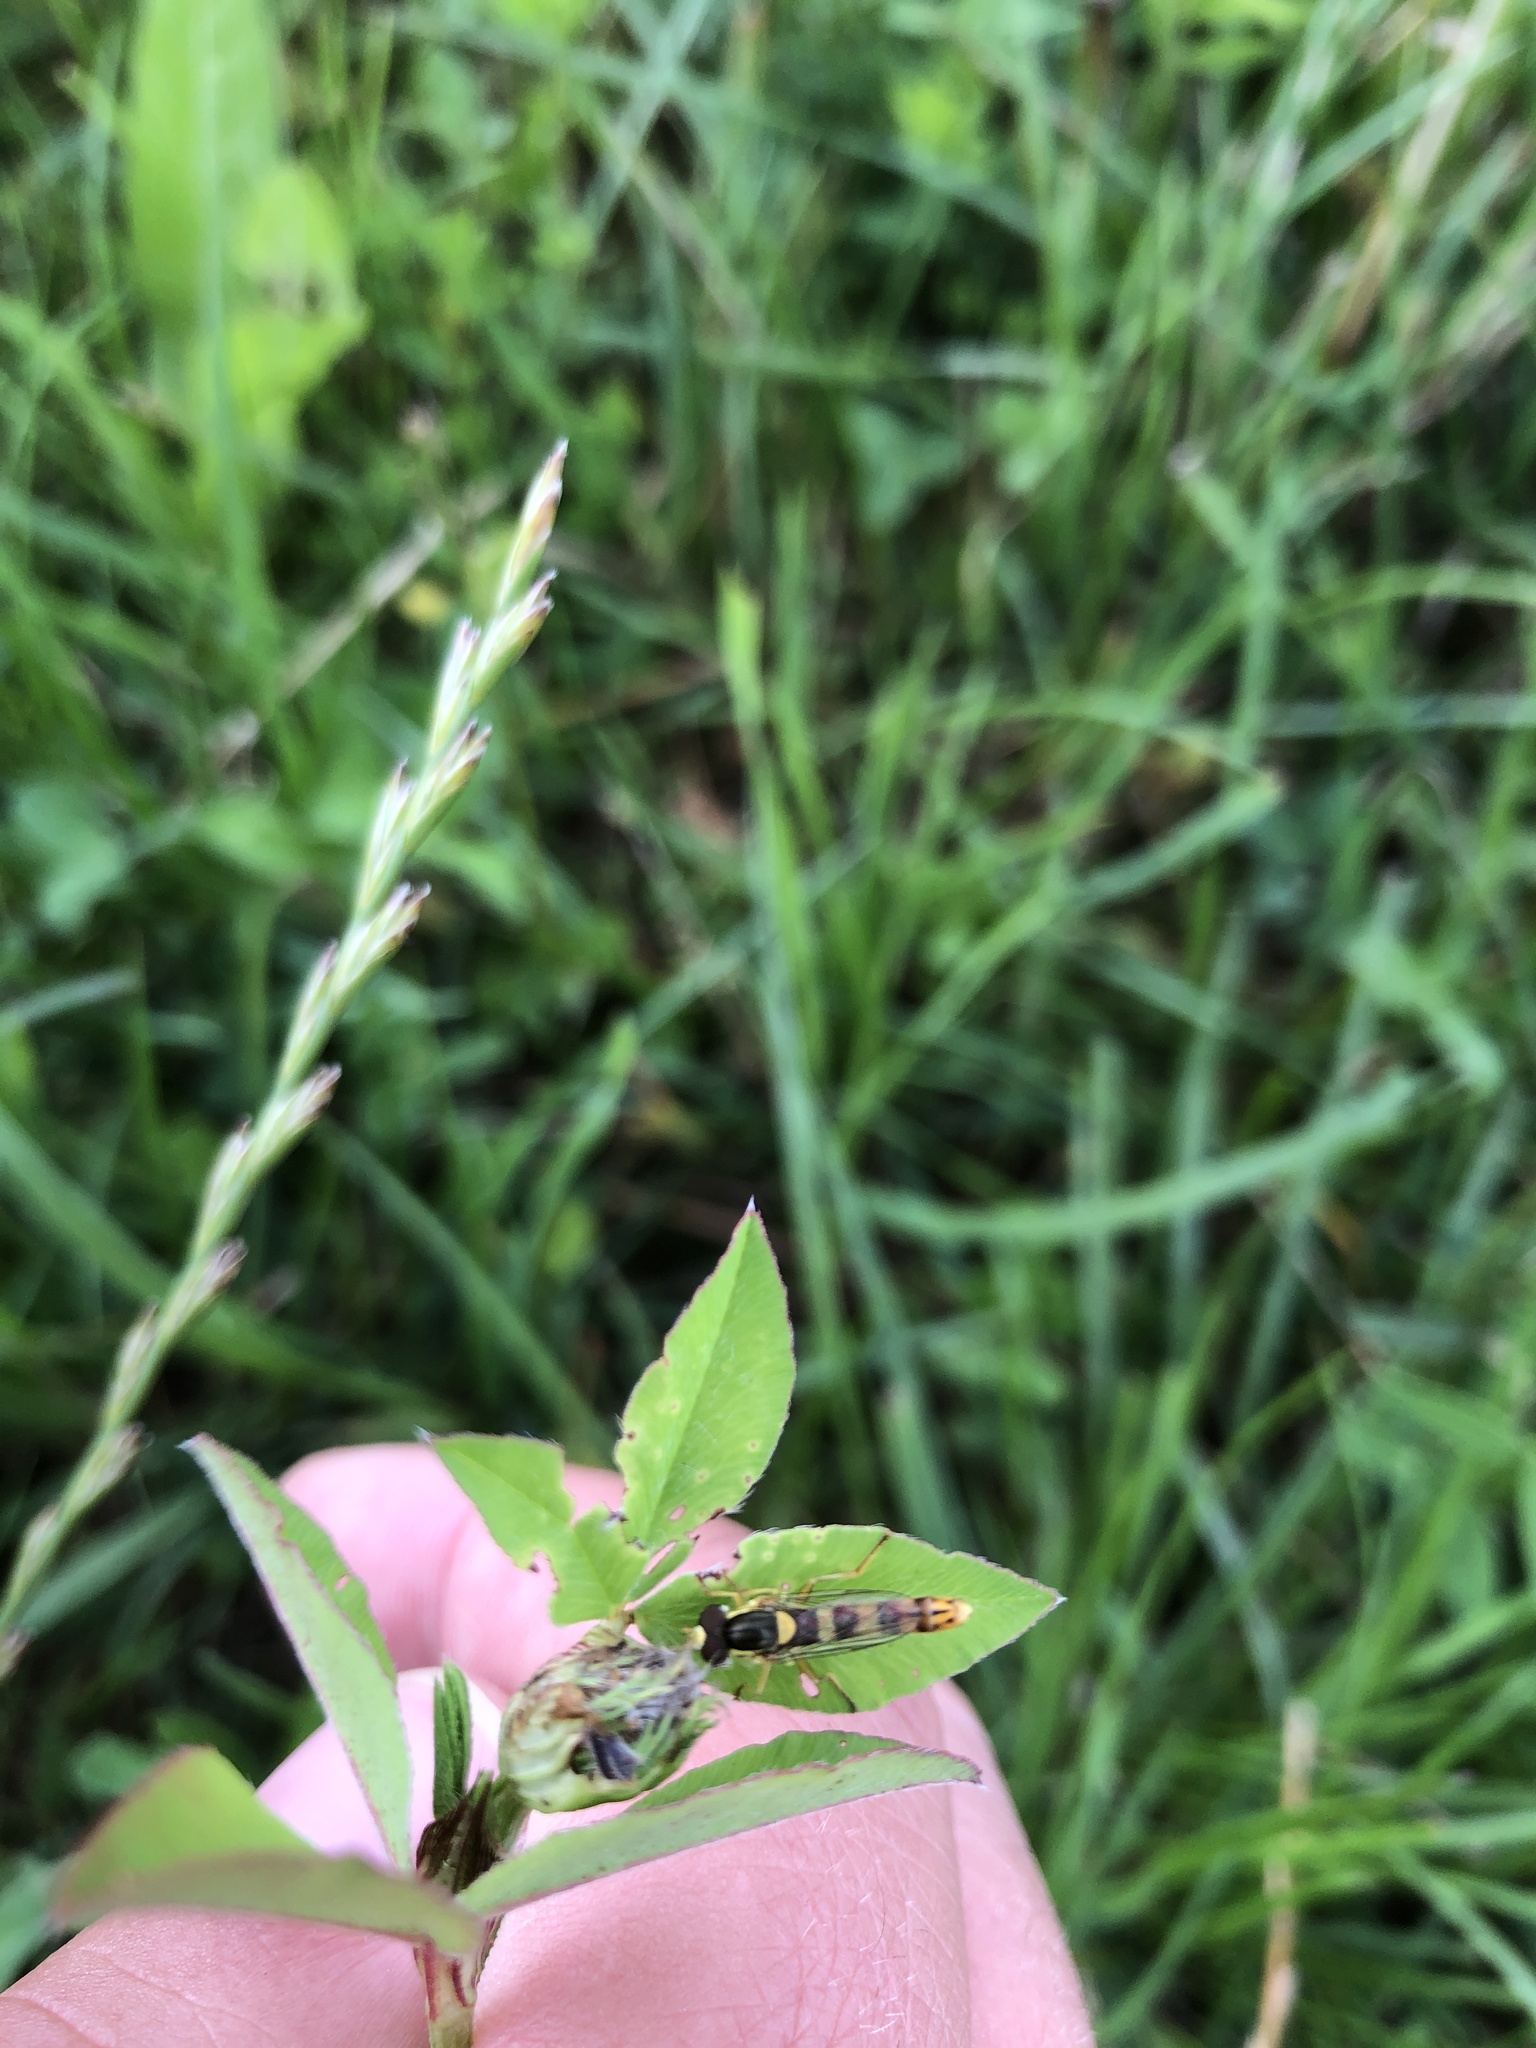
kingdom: Animalia
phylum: Arthropoda
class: Insecta
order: Diptera
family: Syrphidae
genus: Sphaerophoria
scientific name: Sphaerophoria scripta
